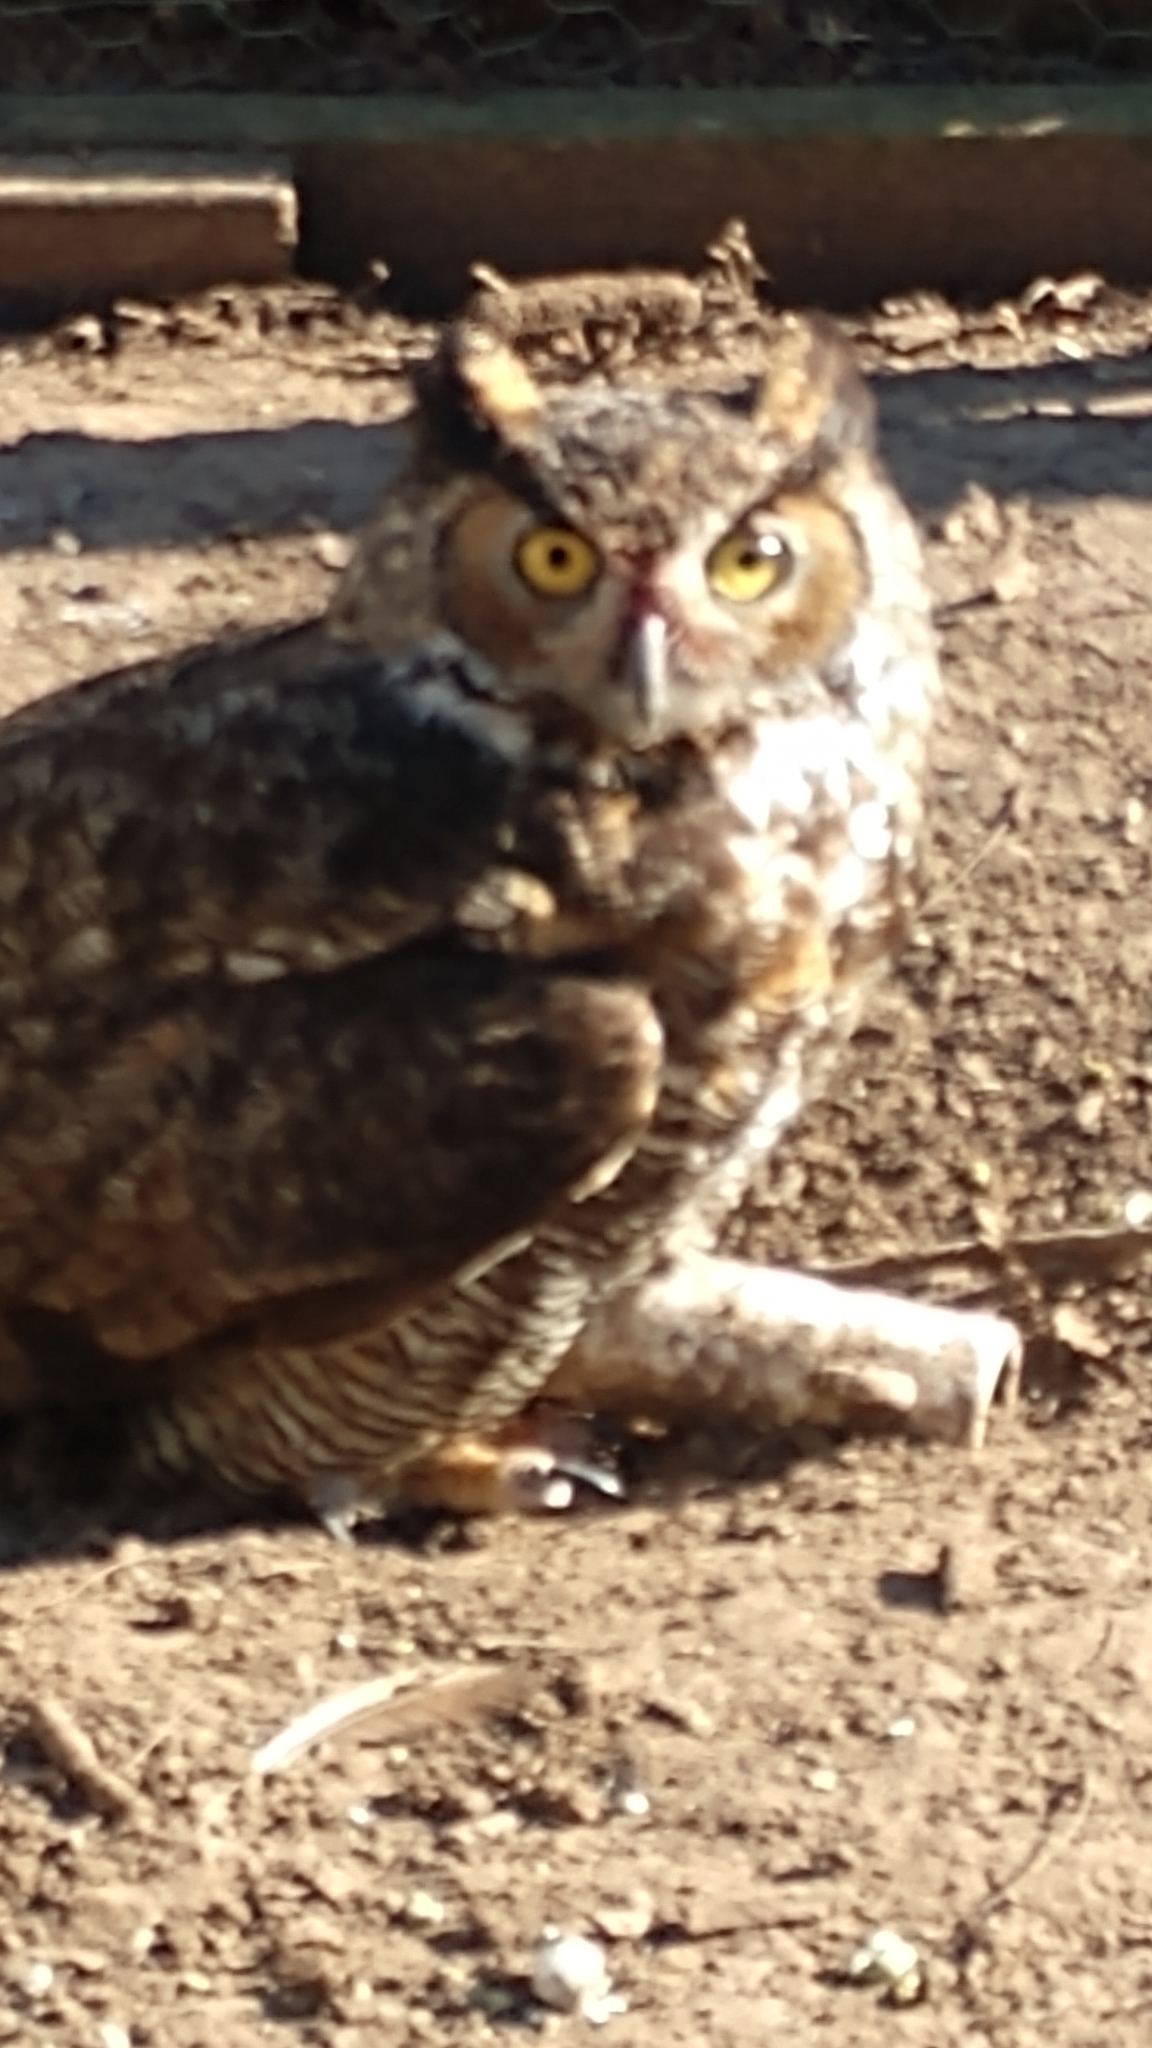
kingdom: Animalia
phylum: Chordata
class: Aves
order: Strigiformes
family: Strigidae
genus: Bubo
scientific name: Bubo virginianus
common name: Great horned owl
